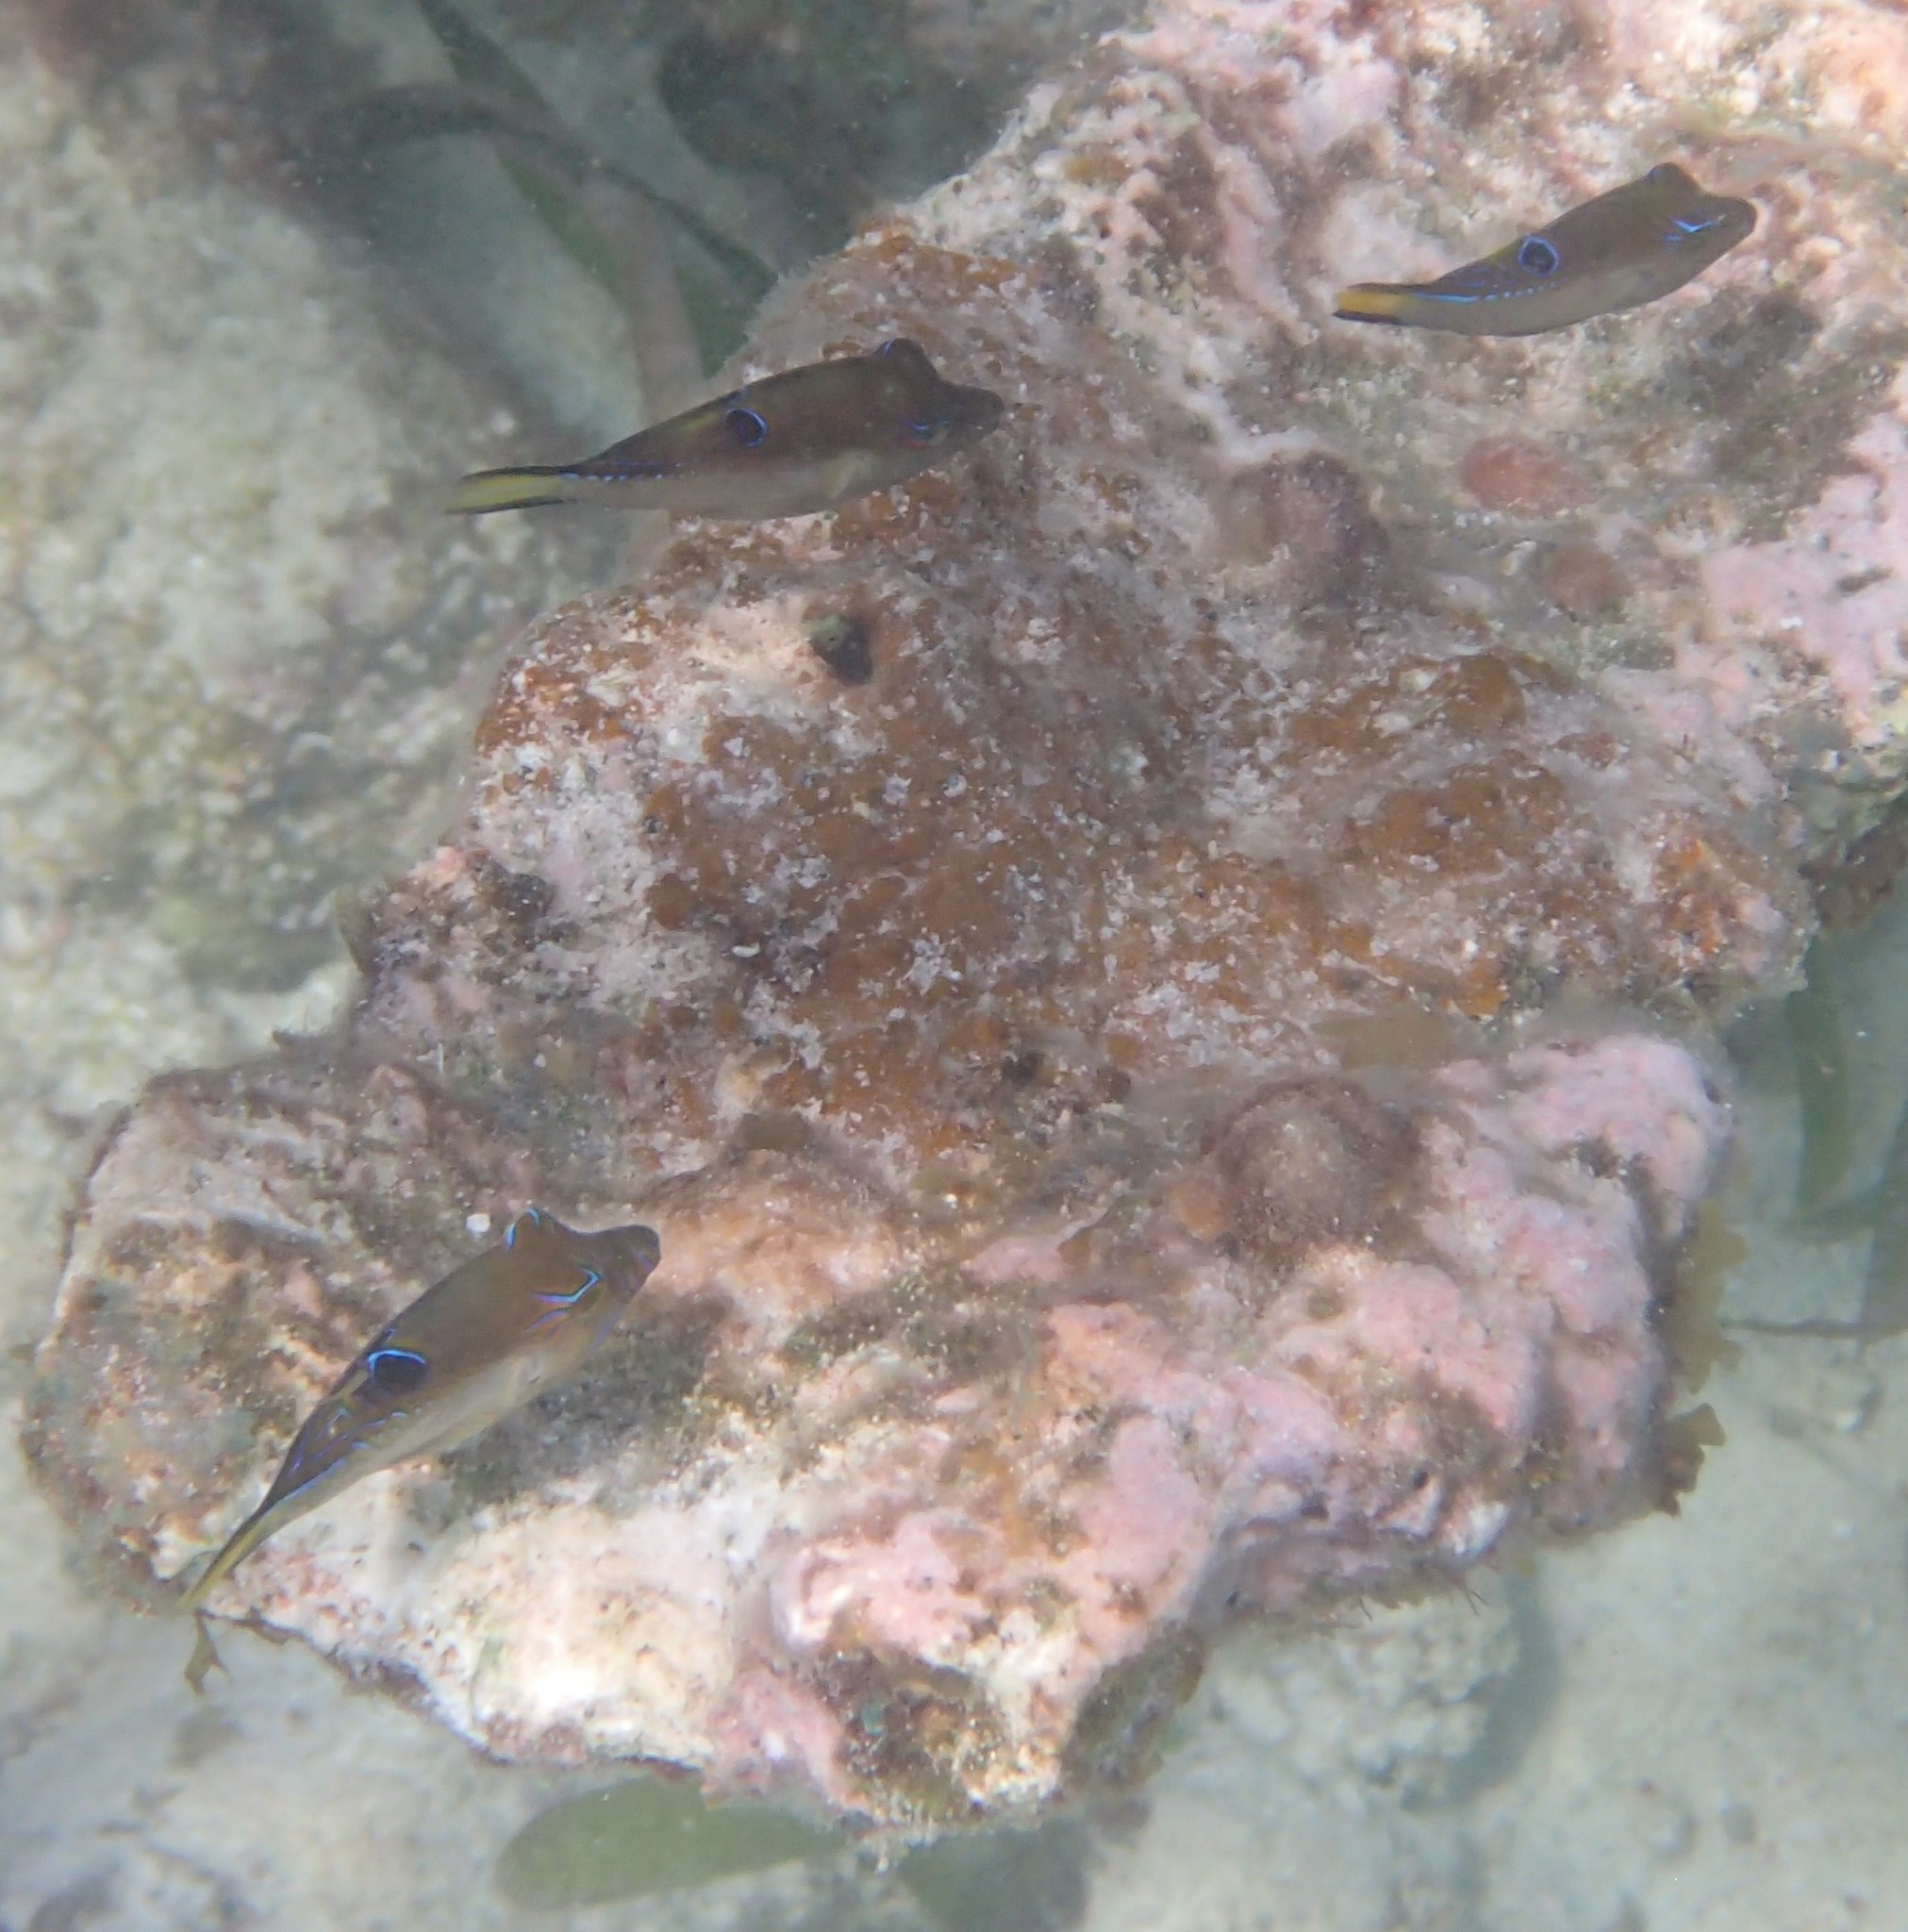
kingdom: Animalia
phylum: Chordata
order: Tetraodontiformes
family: Tetraodontidae
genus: Canthigaster
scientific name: Canthigaster rostrata
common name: Caribbean sharpnose-puffer
